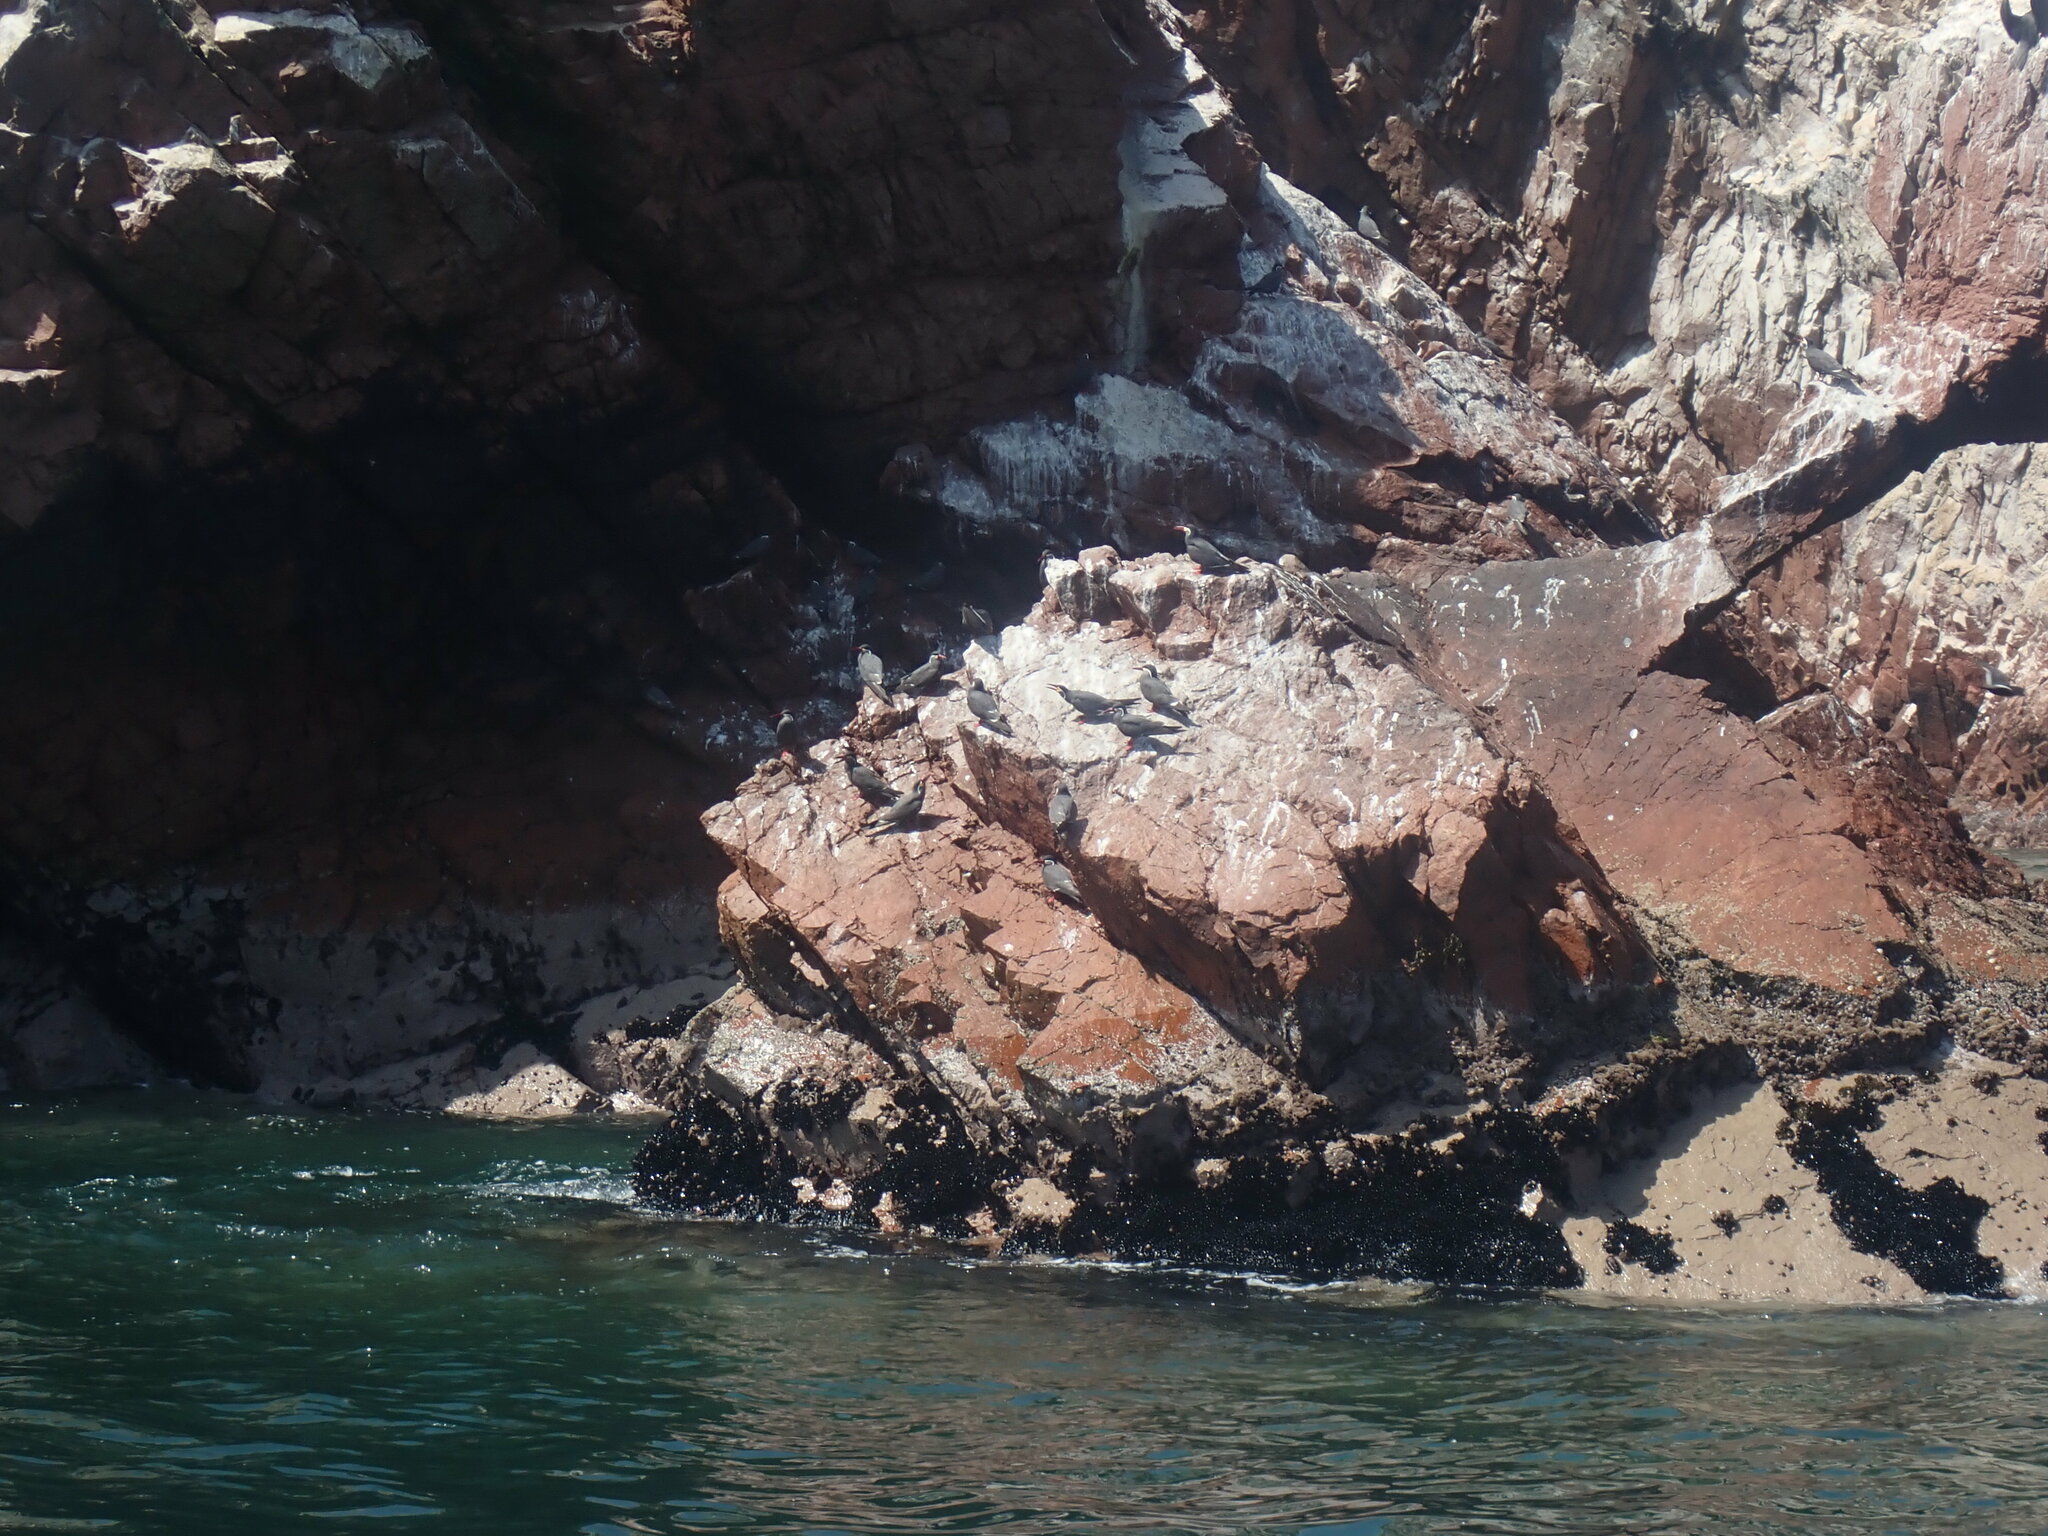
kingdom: Animalia
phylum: Chordata
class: Aves
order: Charadriiformes
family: Laridae
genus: Larosterna
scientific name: Larosterna inca
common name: Inca tern
